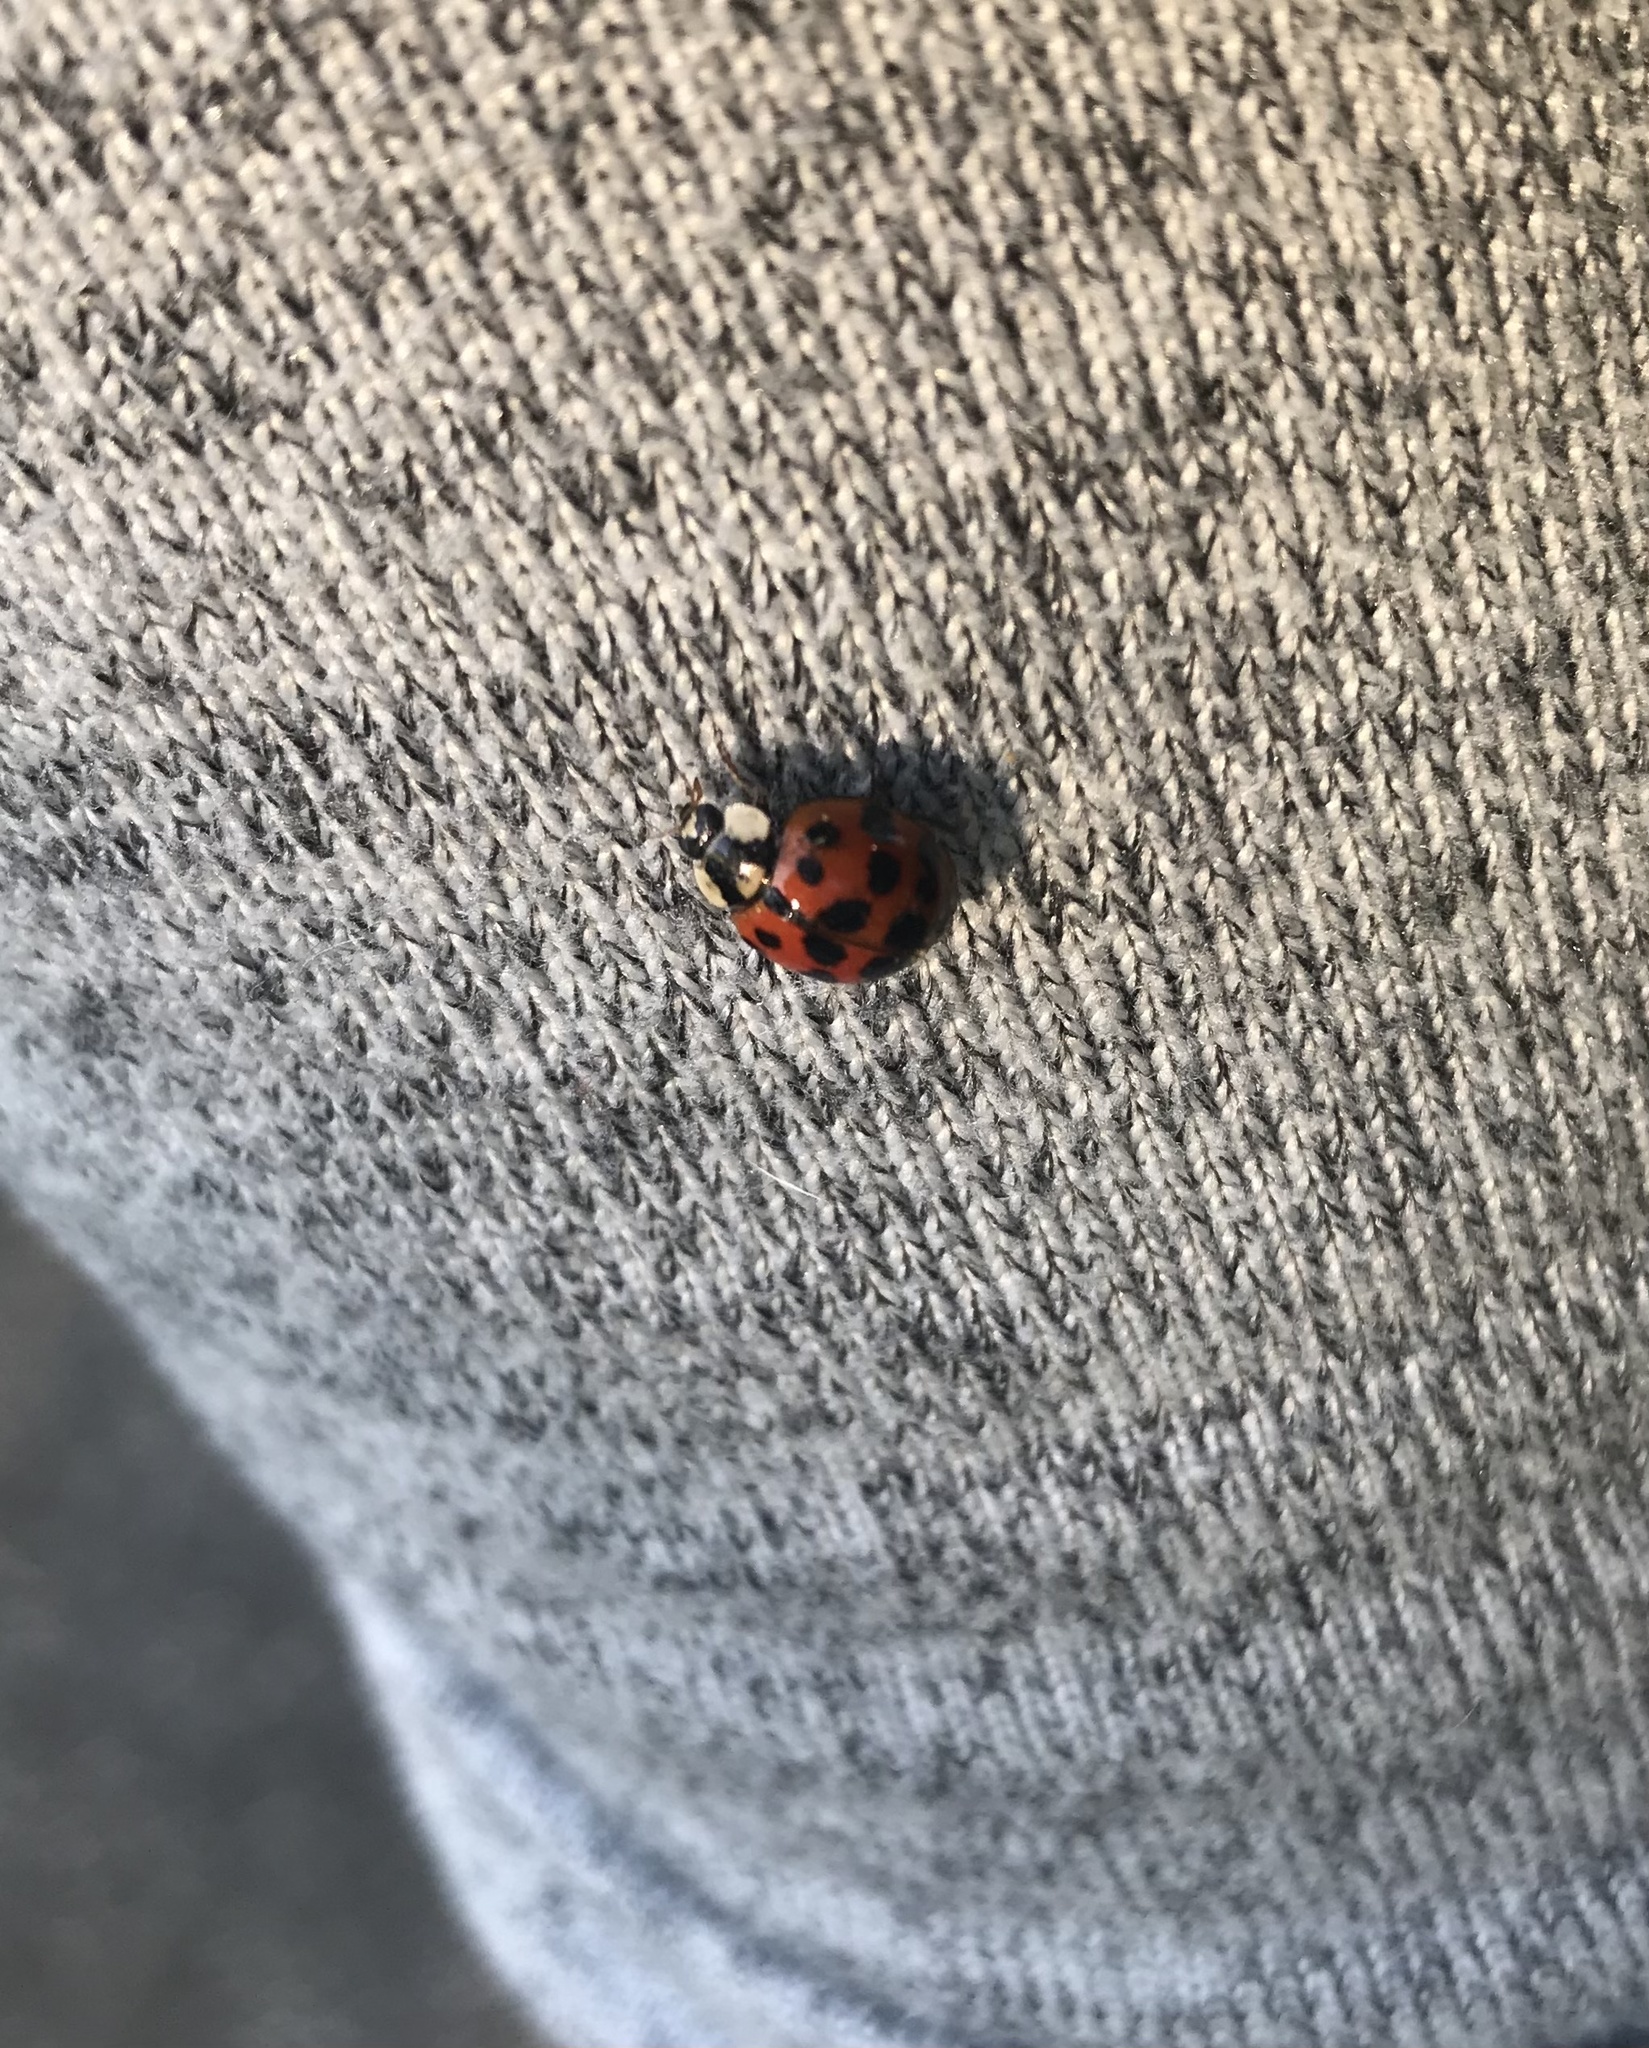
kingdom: Animalia
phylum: Arthropoda
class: Insecta
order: Coleoptera
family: Coccinellidae
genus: Harmonia
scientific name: Harmonia axyridis
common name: Harlequin ladybird
